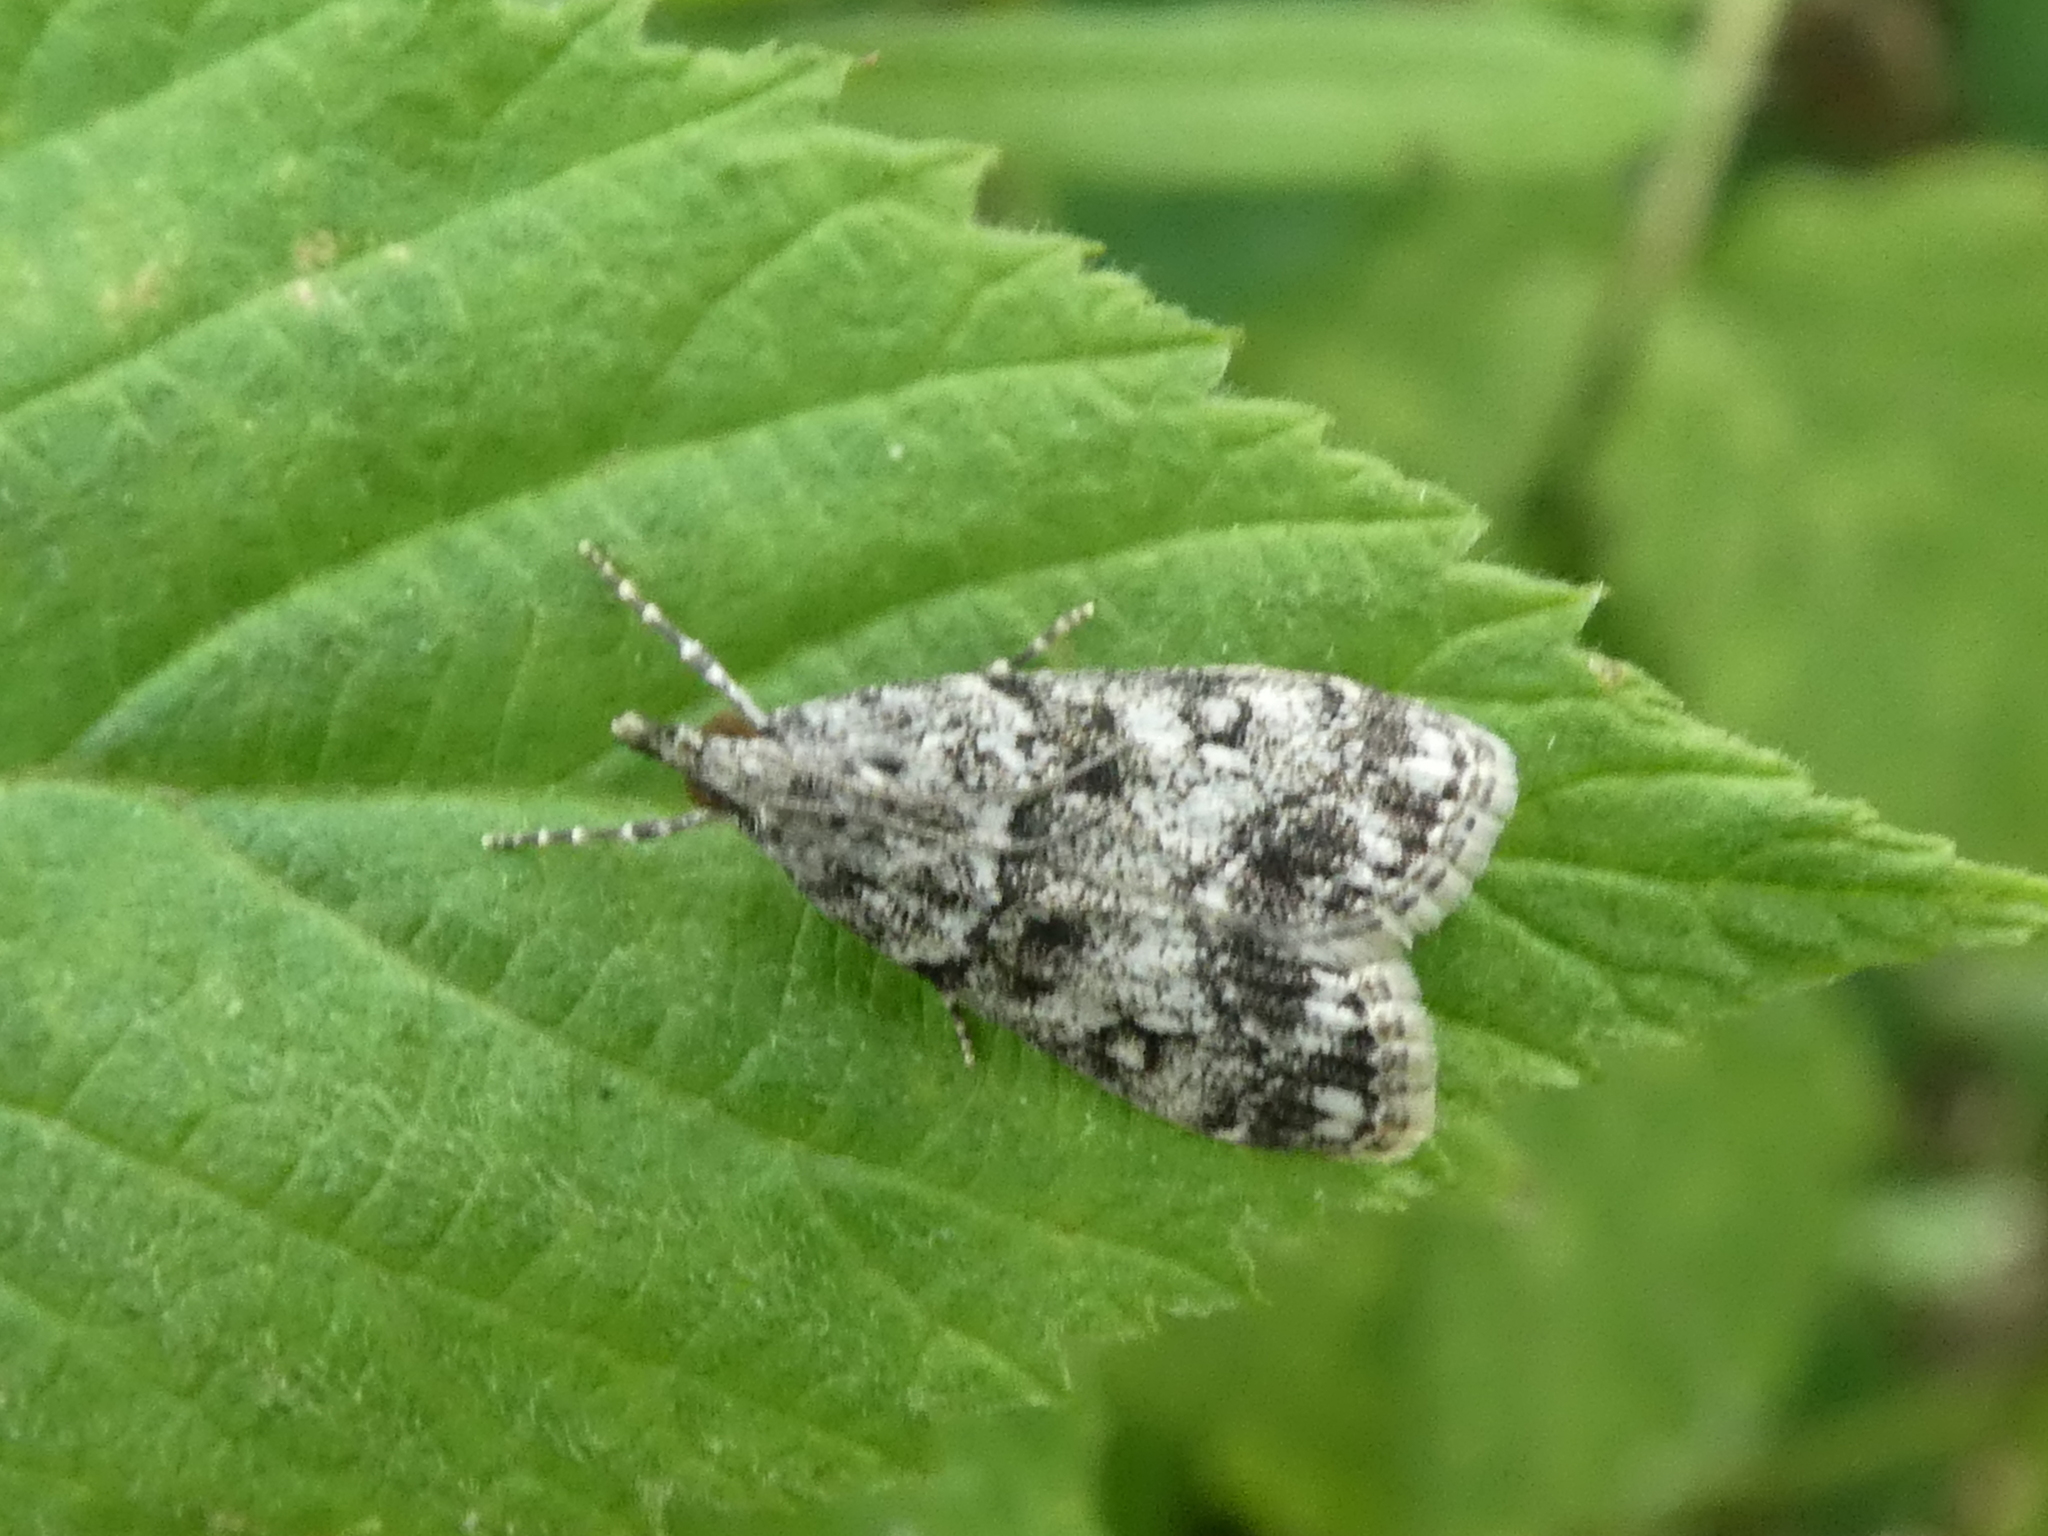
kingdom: Animalia
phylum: Arthropoda
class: Insecta
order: Lepidoptera
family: Crambidae
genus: Eudonia
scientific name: Eudonia lacustrata
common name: Little grey
